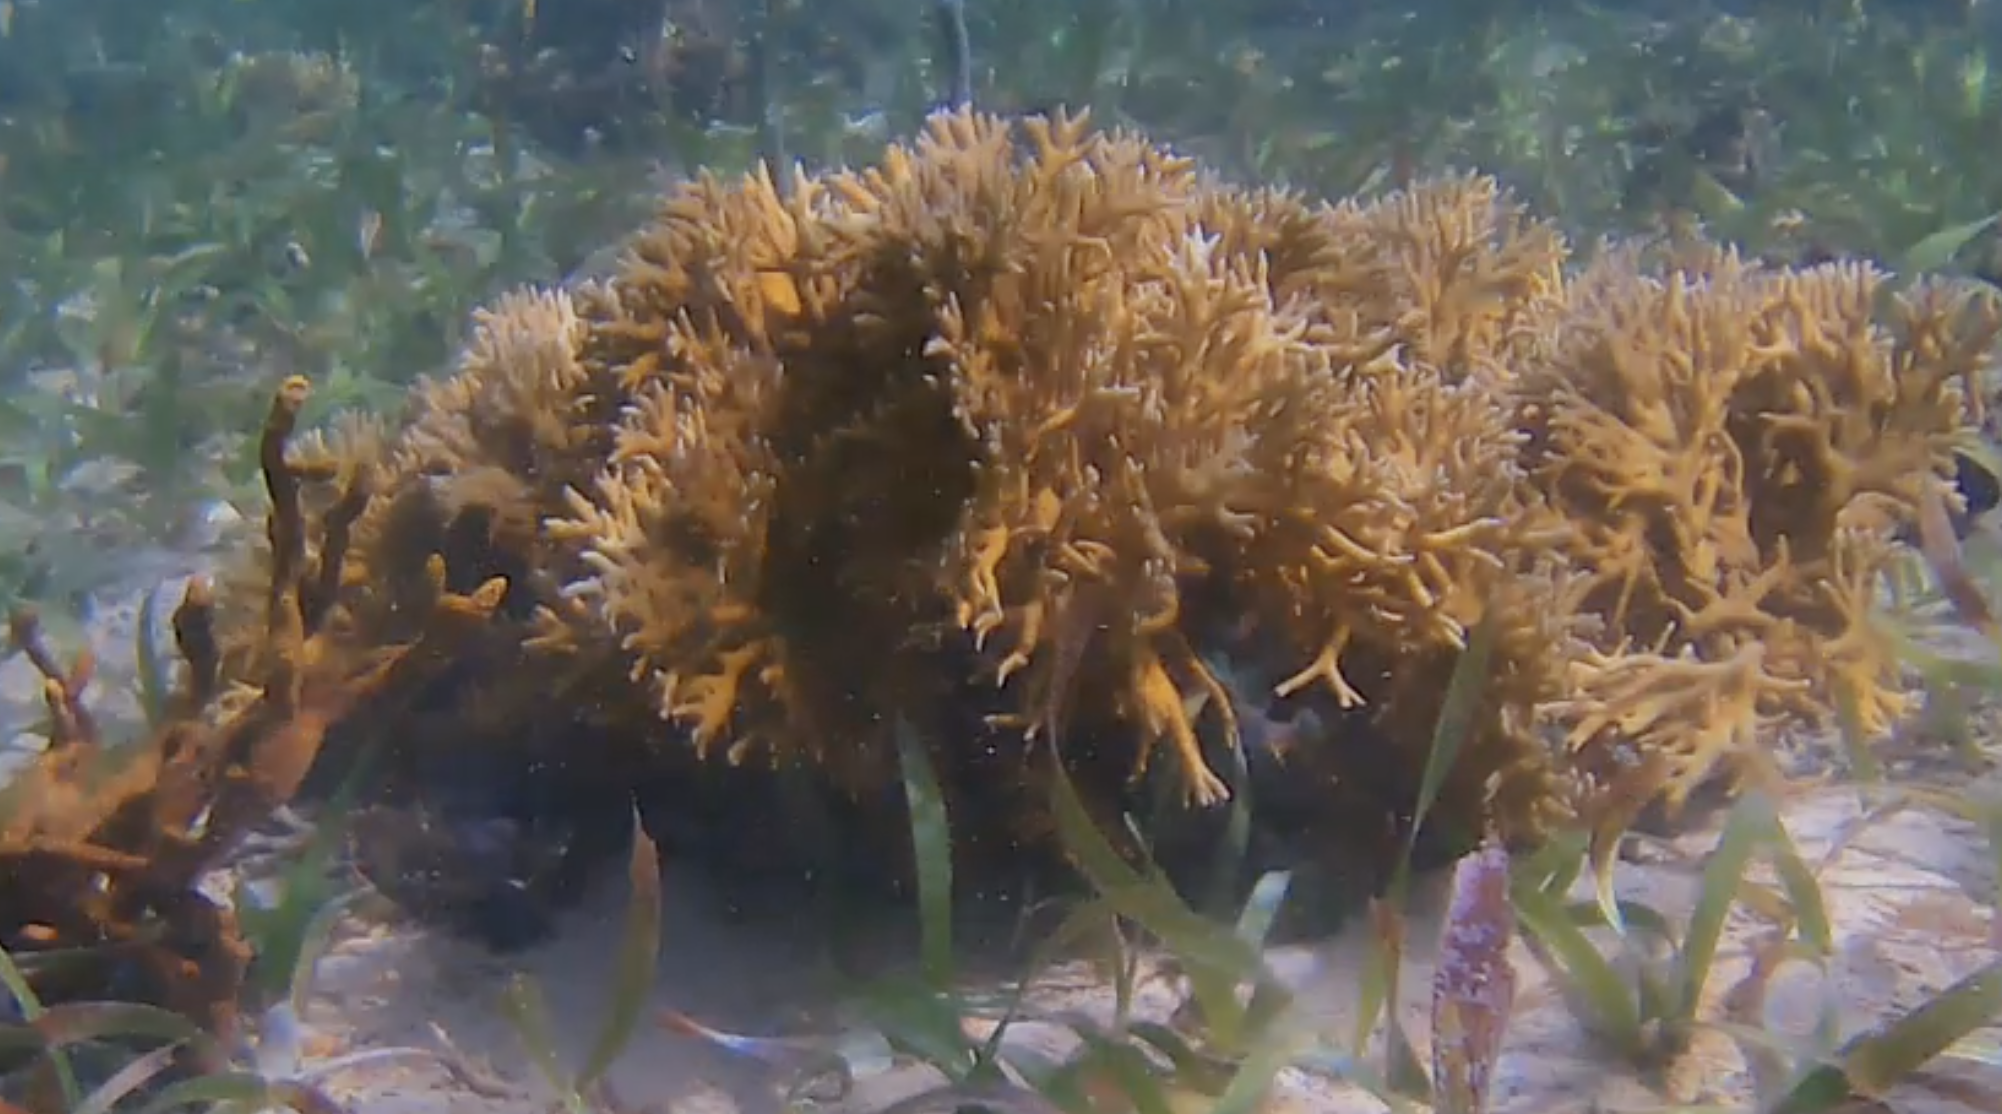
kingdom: Animalia
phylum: Cnidaria
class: Hydrozoa
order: Anthoathecata
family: Milleporidae
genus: Millepora
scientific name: Millepora alcicornis
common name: Branching fire coral
